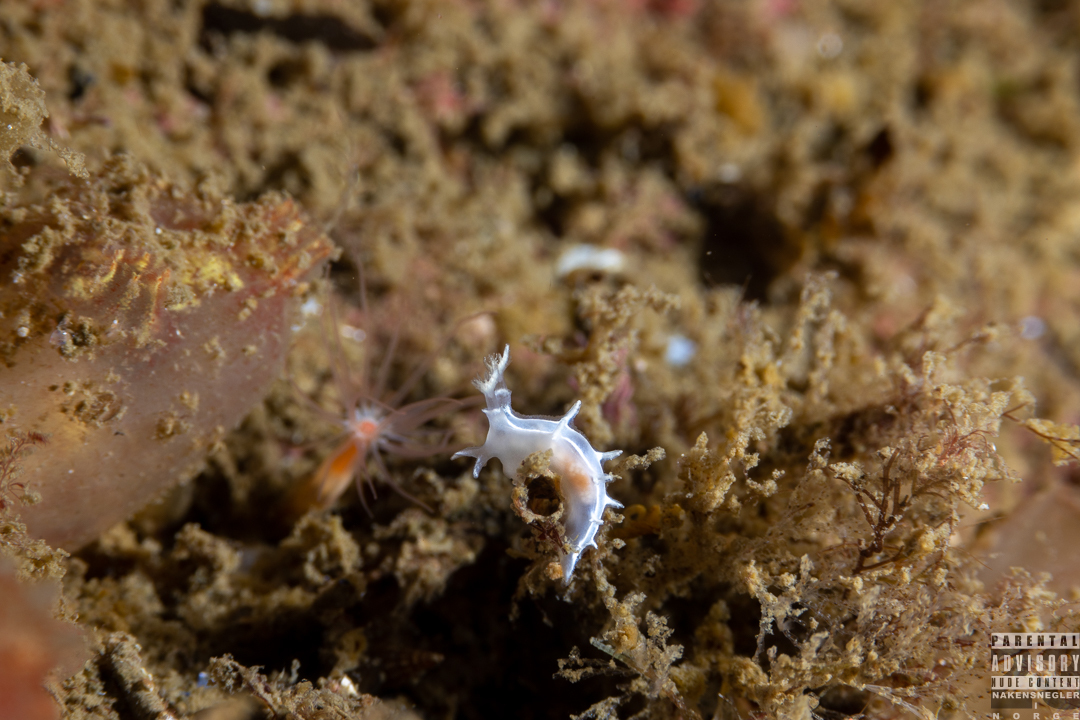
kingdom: Animalia
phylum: Mollusca
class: Gastropoda
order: Nudibranchia
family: Tritoniidae
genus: Duvaucelia
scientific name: Duvaucelia lineata
